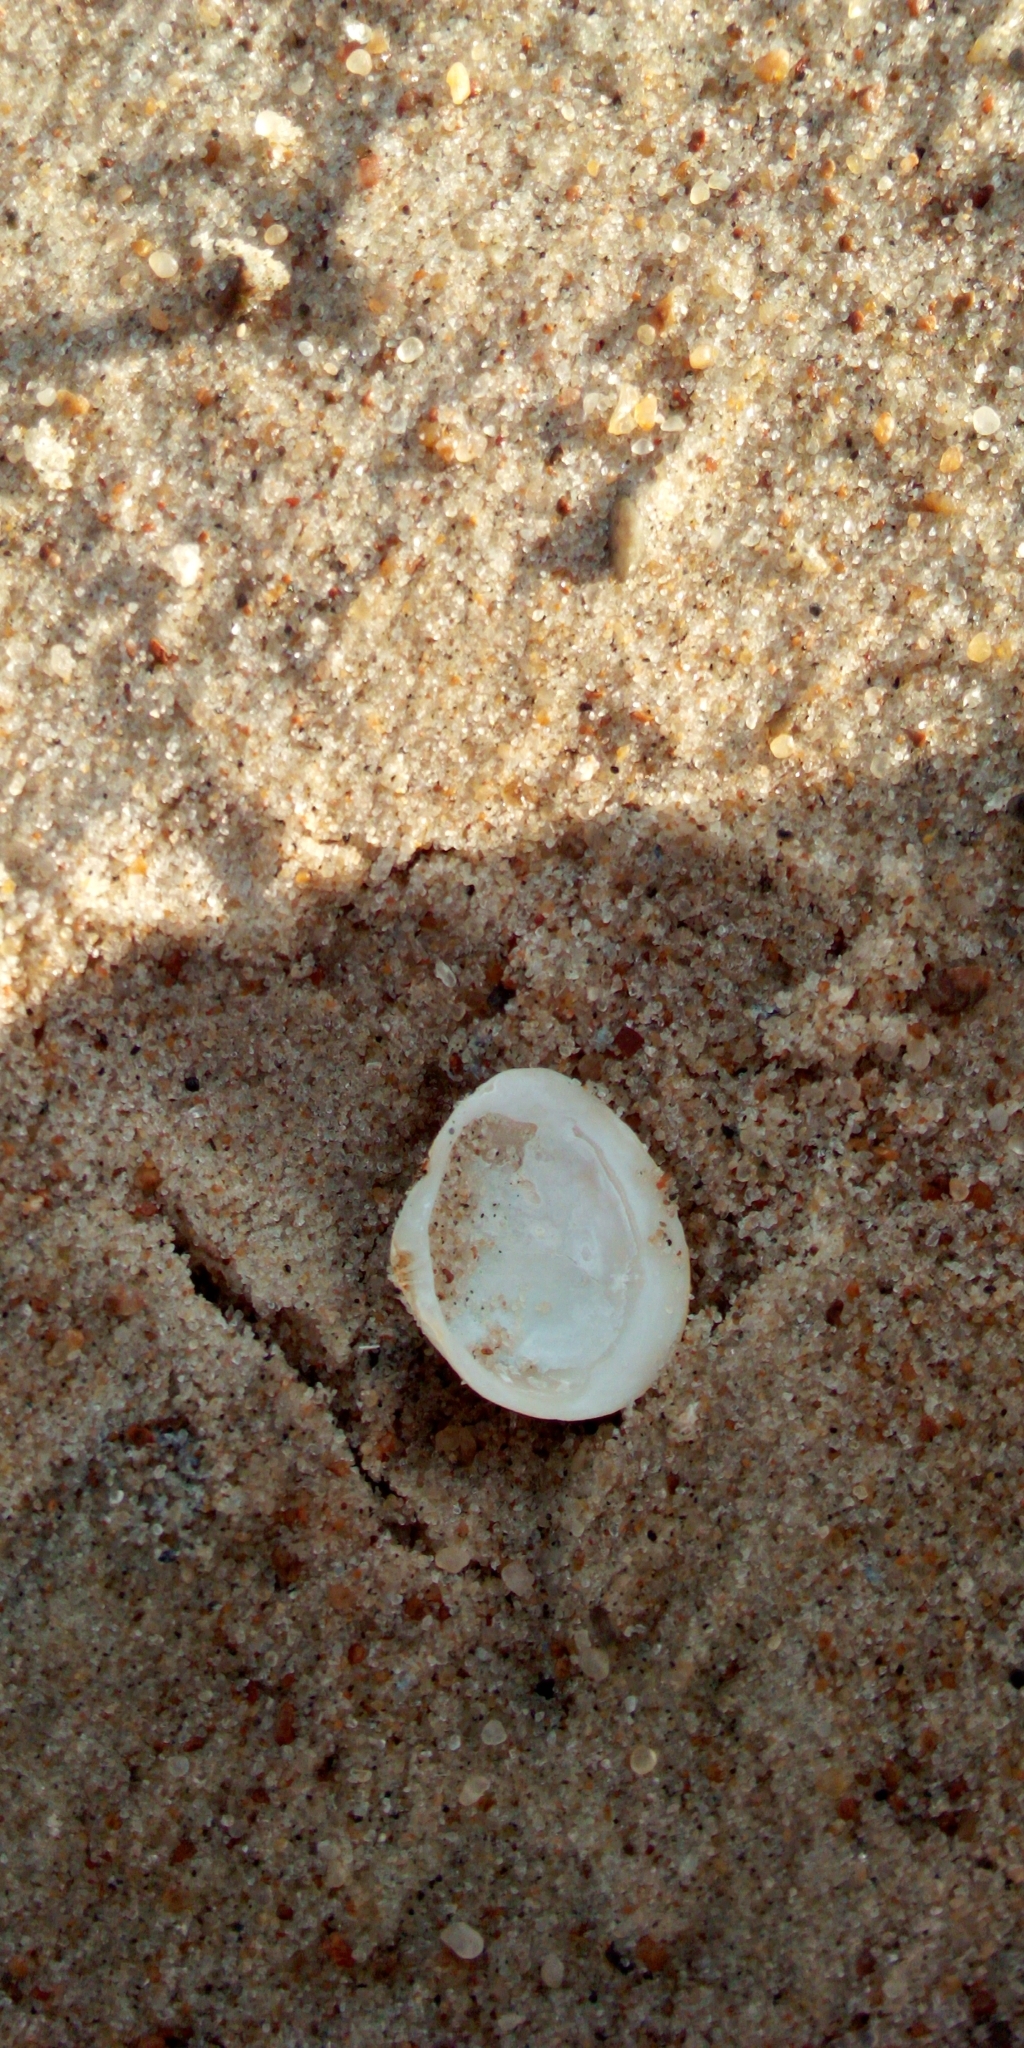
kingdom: Animalia
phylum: Mollusca
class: Bivalvia
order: Cardiida
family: Tellinidae
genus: Macoma
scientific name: Macoma balthica
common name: Baltic tellin
